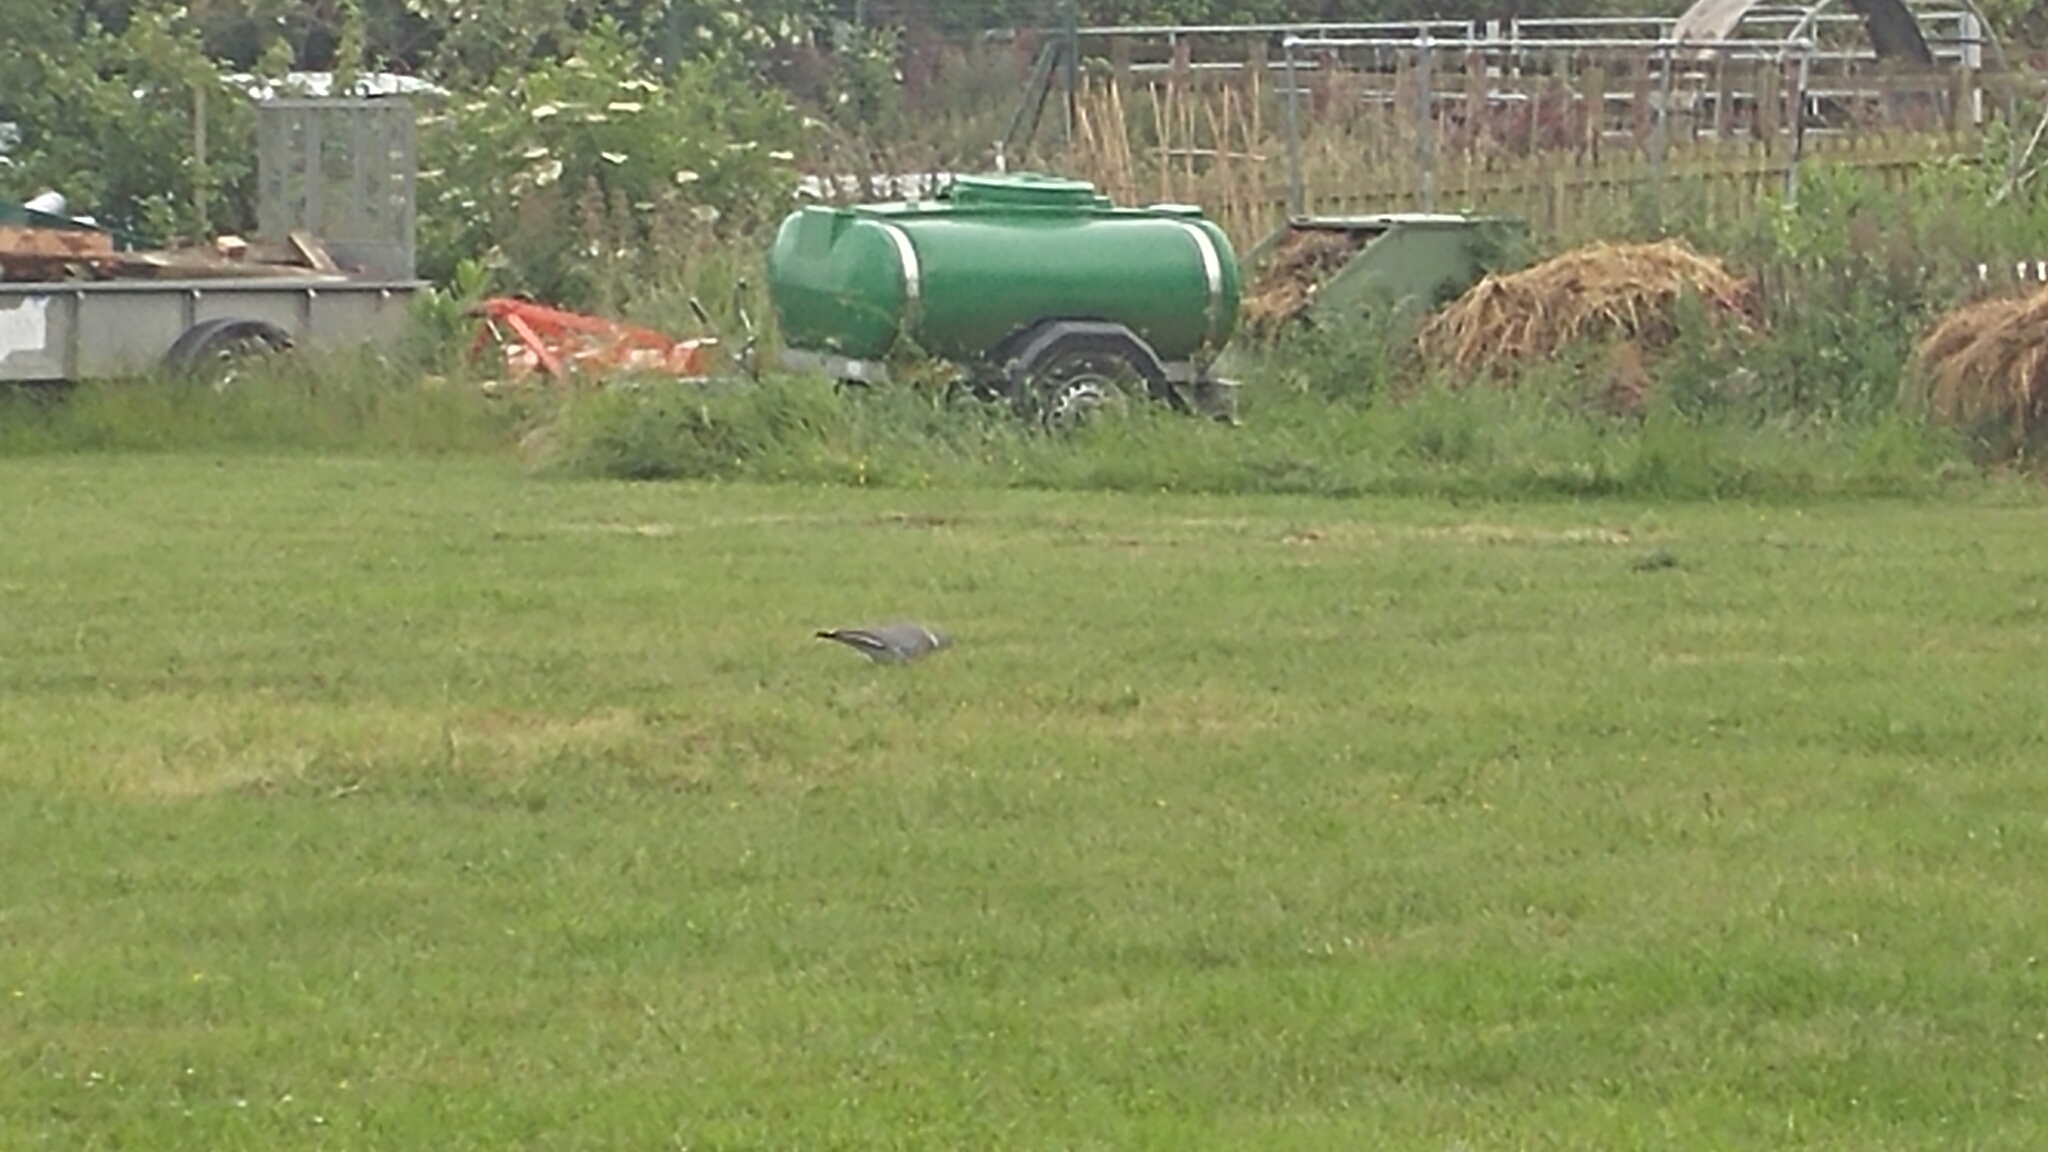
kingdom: Animalia
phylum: Chordata
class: Aves
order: Columbiformes
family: Columbidae
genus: Columba
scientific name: Columba palumbus
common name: Common wood pigeon
